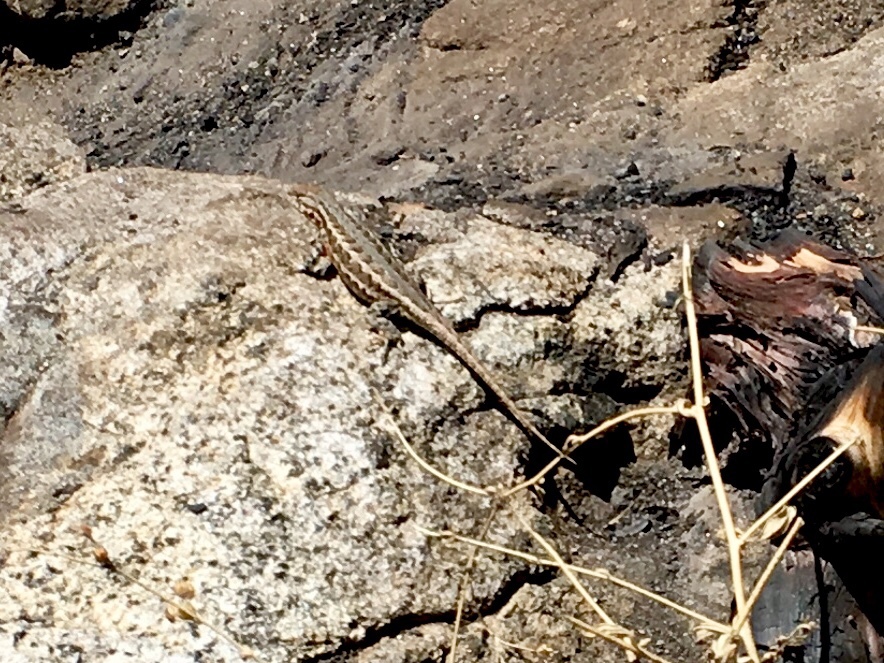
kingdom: Animalia
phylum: Chordata
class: Squamata
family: Phrynosomatidae
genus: Sceloporus
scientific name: Sceloporus graciosus
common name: Sagebrush lizard
